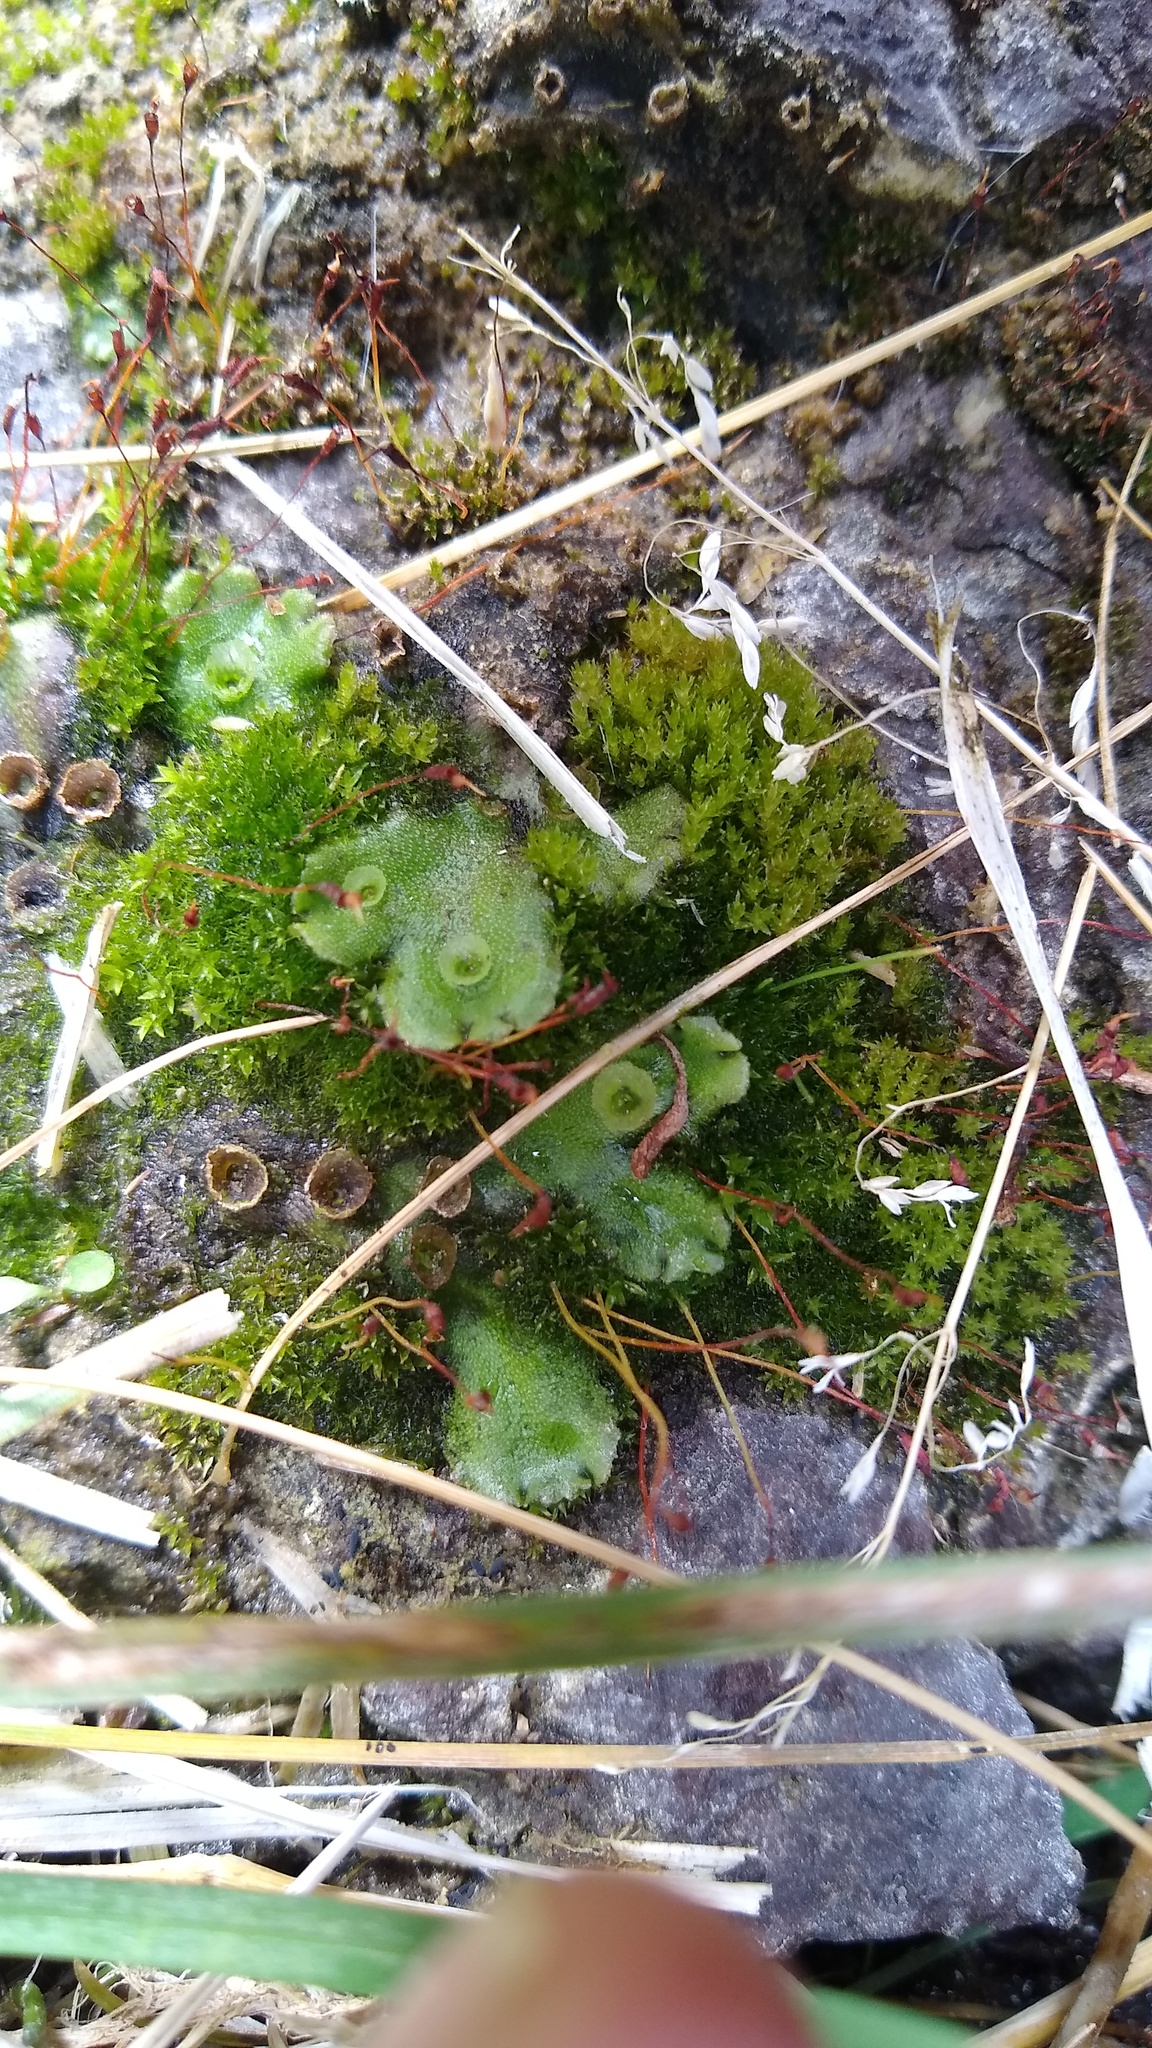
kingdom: Plantae
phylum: Marchantiophyta
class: Marchantiopsida
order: Marchantiales
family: Marchantiaceae
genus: Marchantia
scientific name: Marchantia polymorpha
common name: Common liverwort
